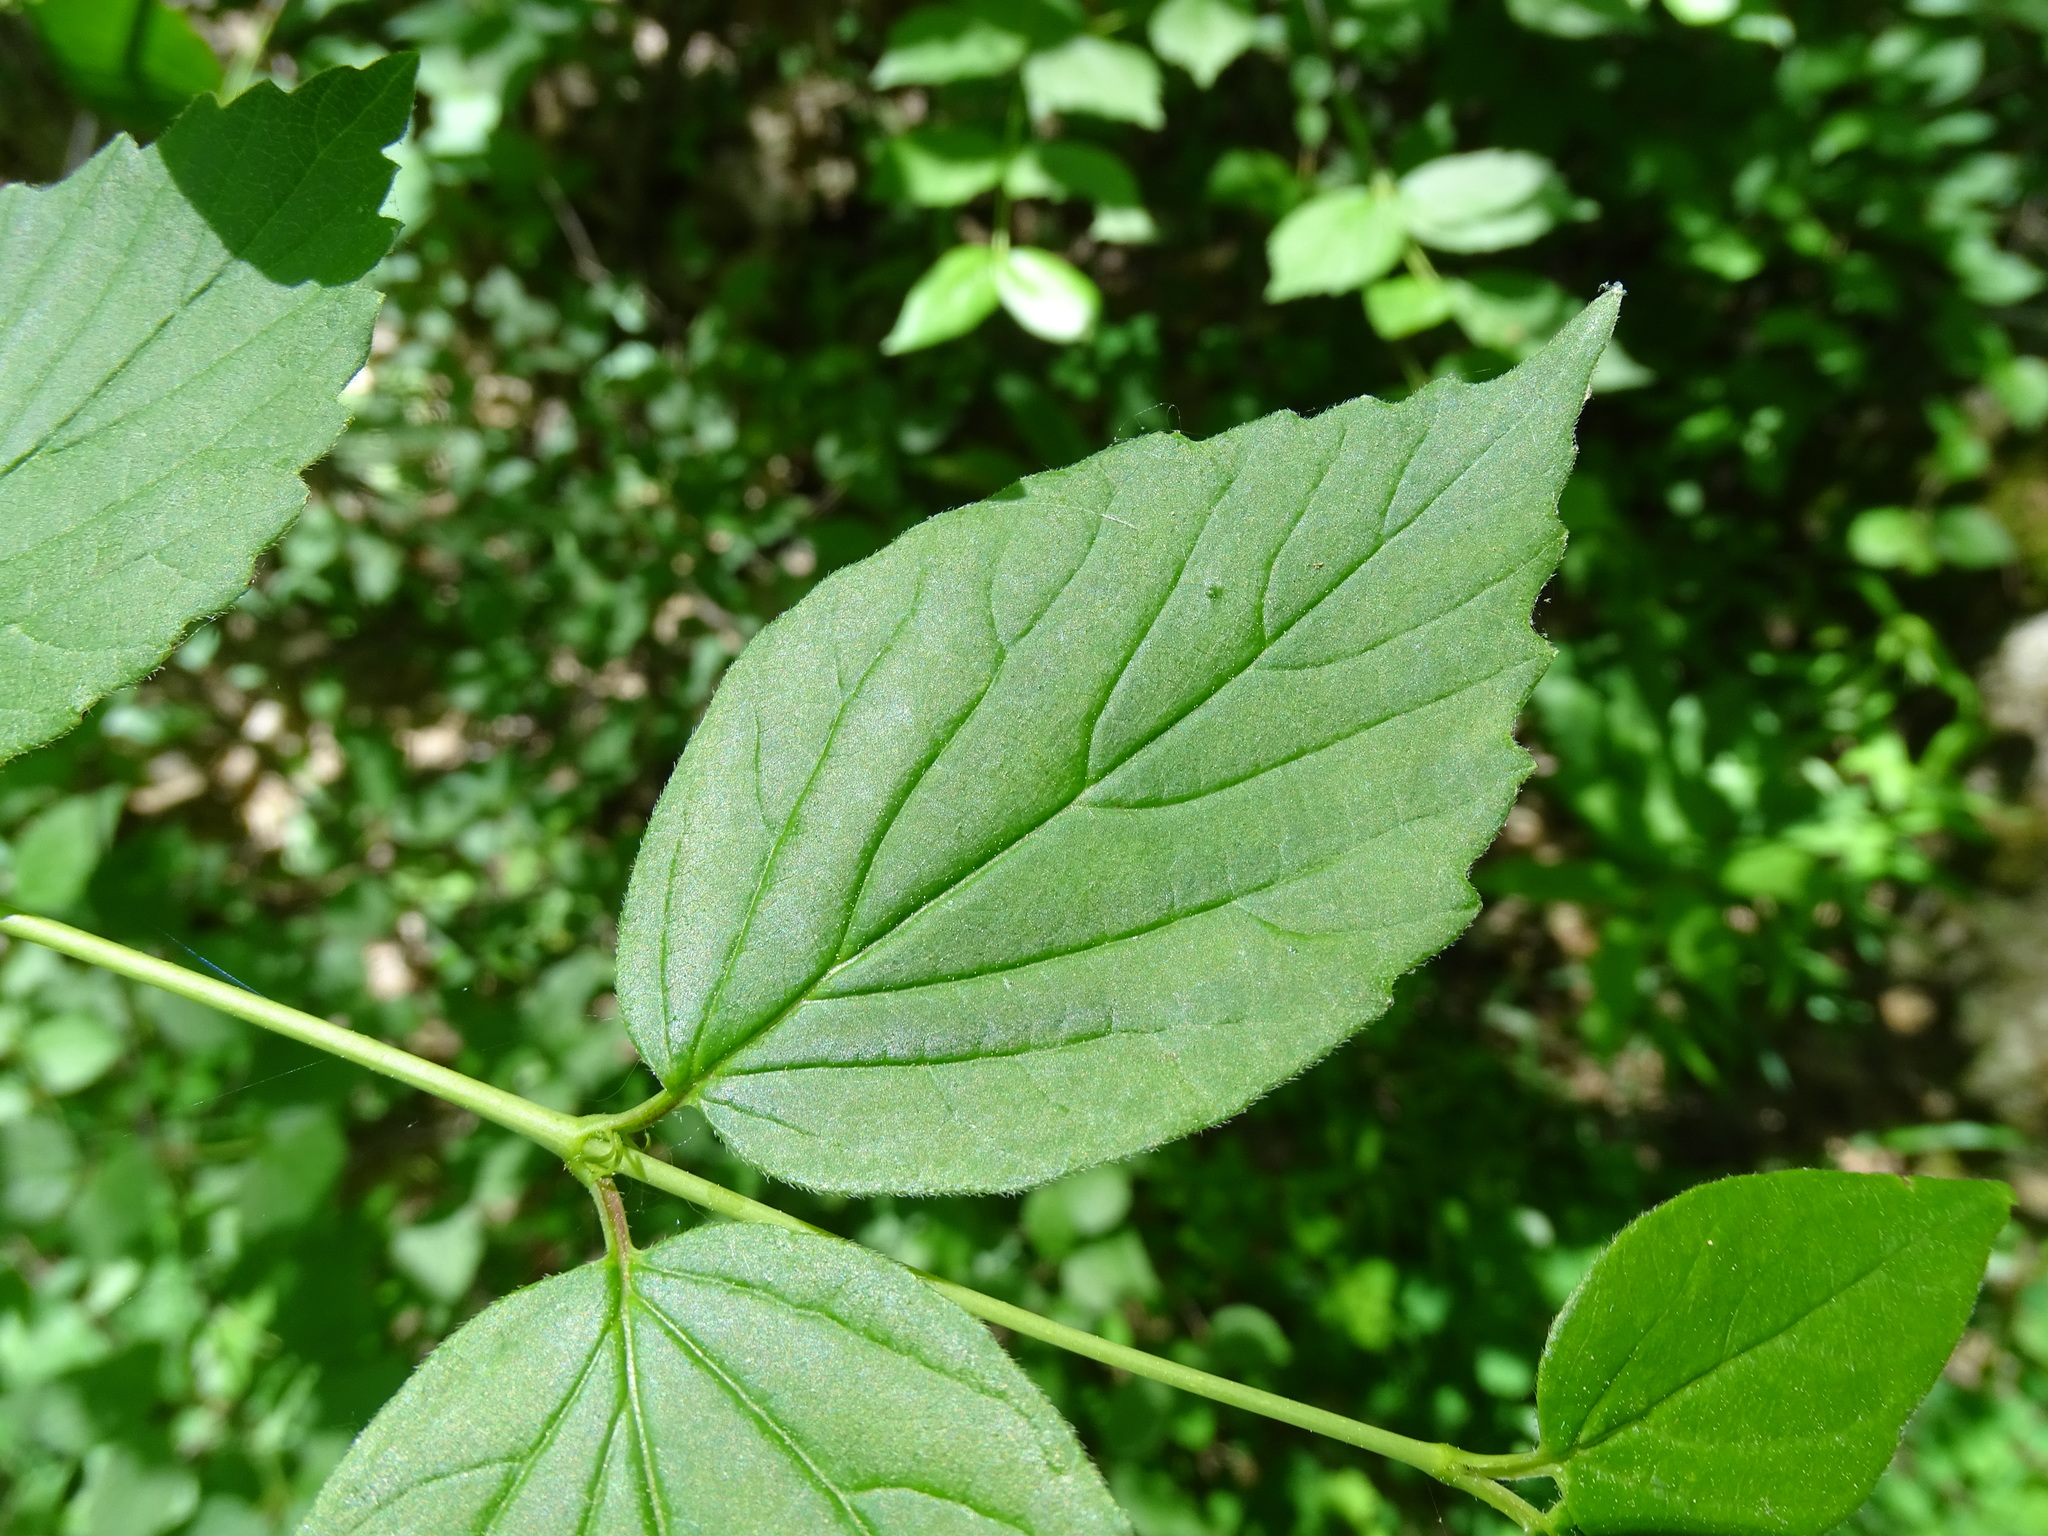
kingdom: Plantae
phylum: Tracheophyta
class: Magnoliopsida
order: Dipsacales
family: Viburnaceae
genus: Viburnum
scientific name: Viburnum rafinesqueanum
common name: Downy arrow-wood
